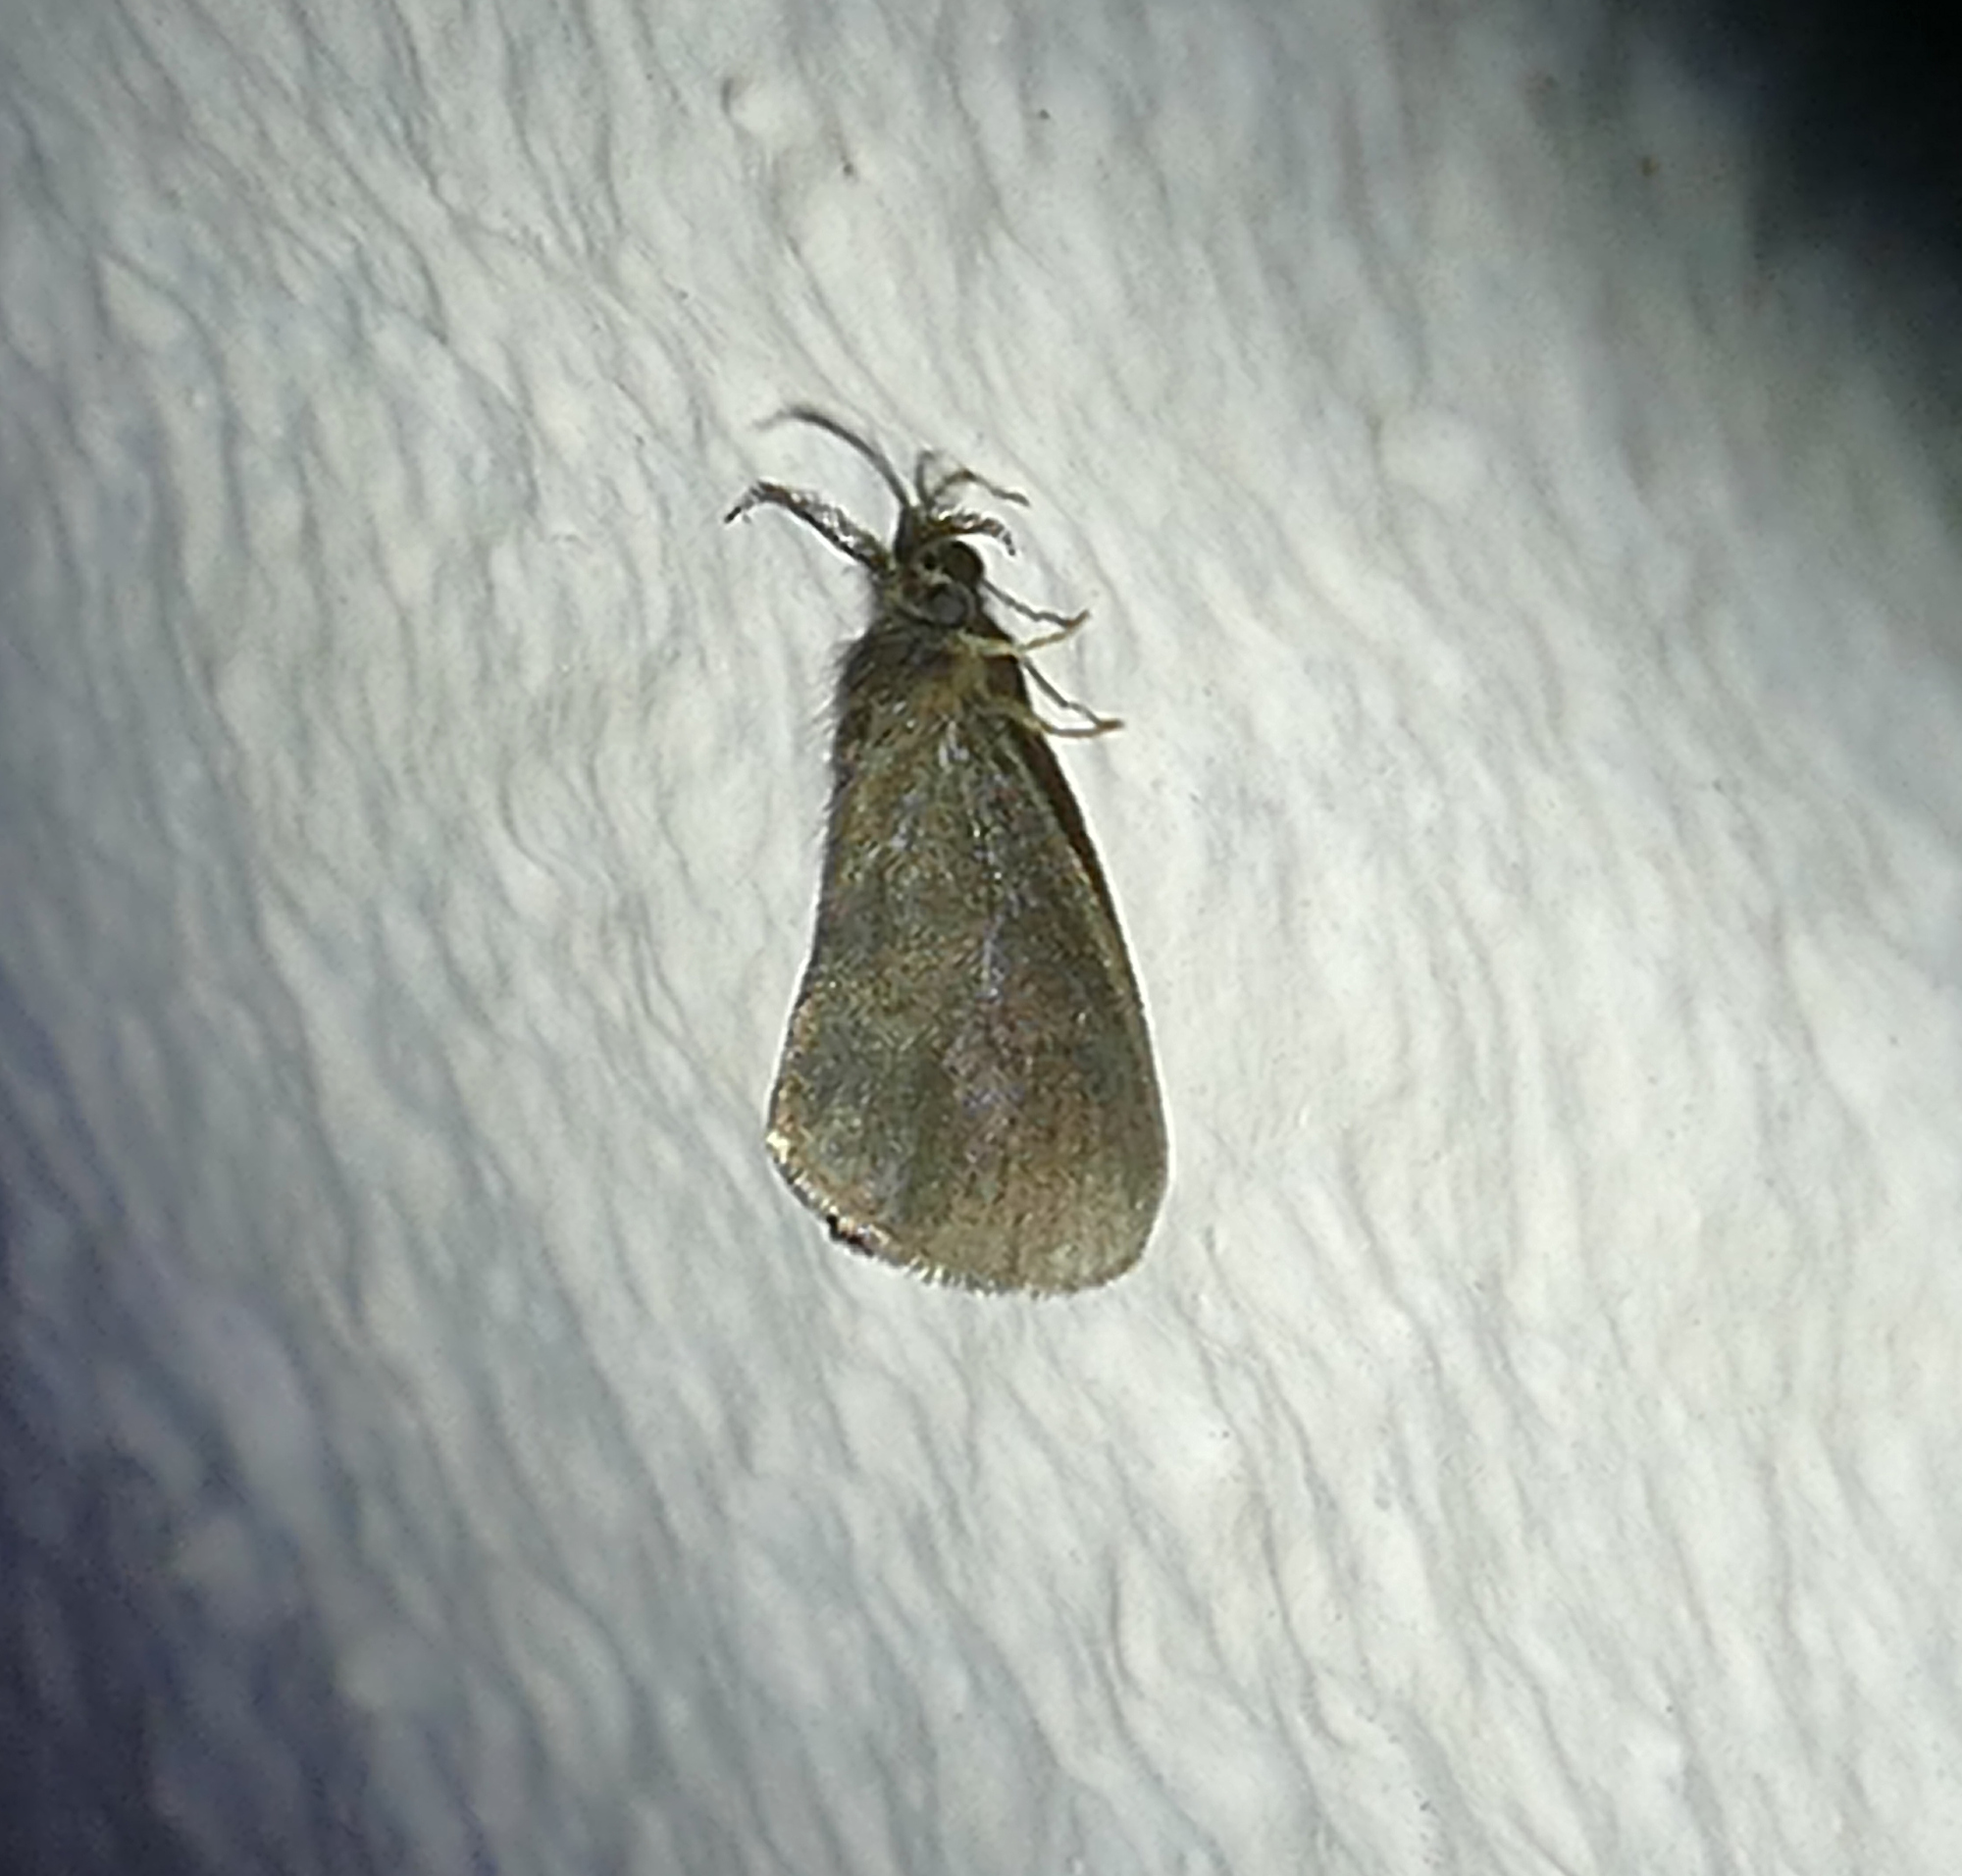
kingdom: Animalia
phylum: Arthropoda
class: Insecta
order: Lepidoptera
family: Psychidae
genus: Cryptothelea
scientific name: Cryptothelea gloverii
